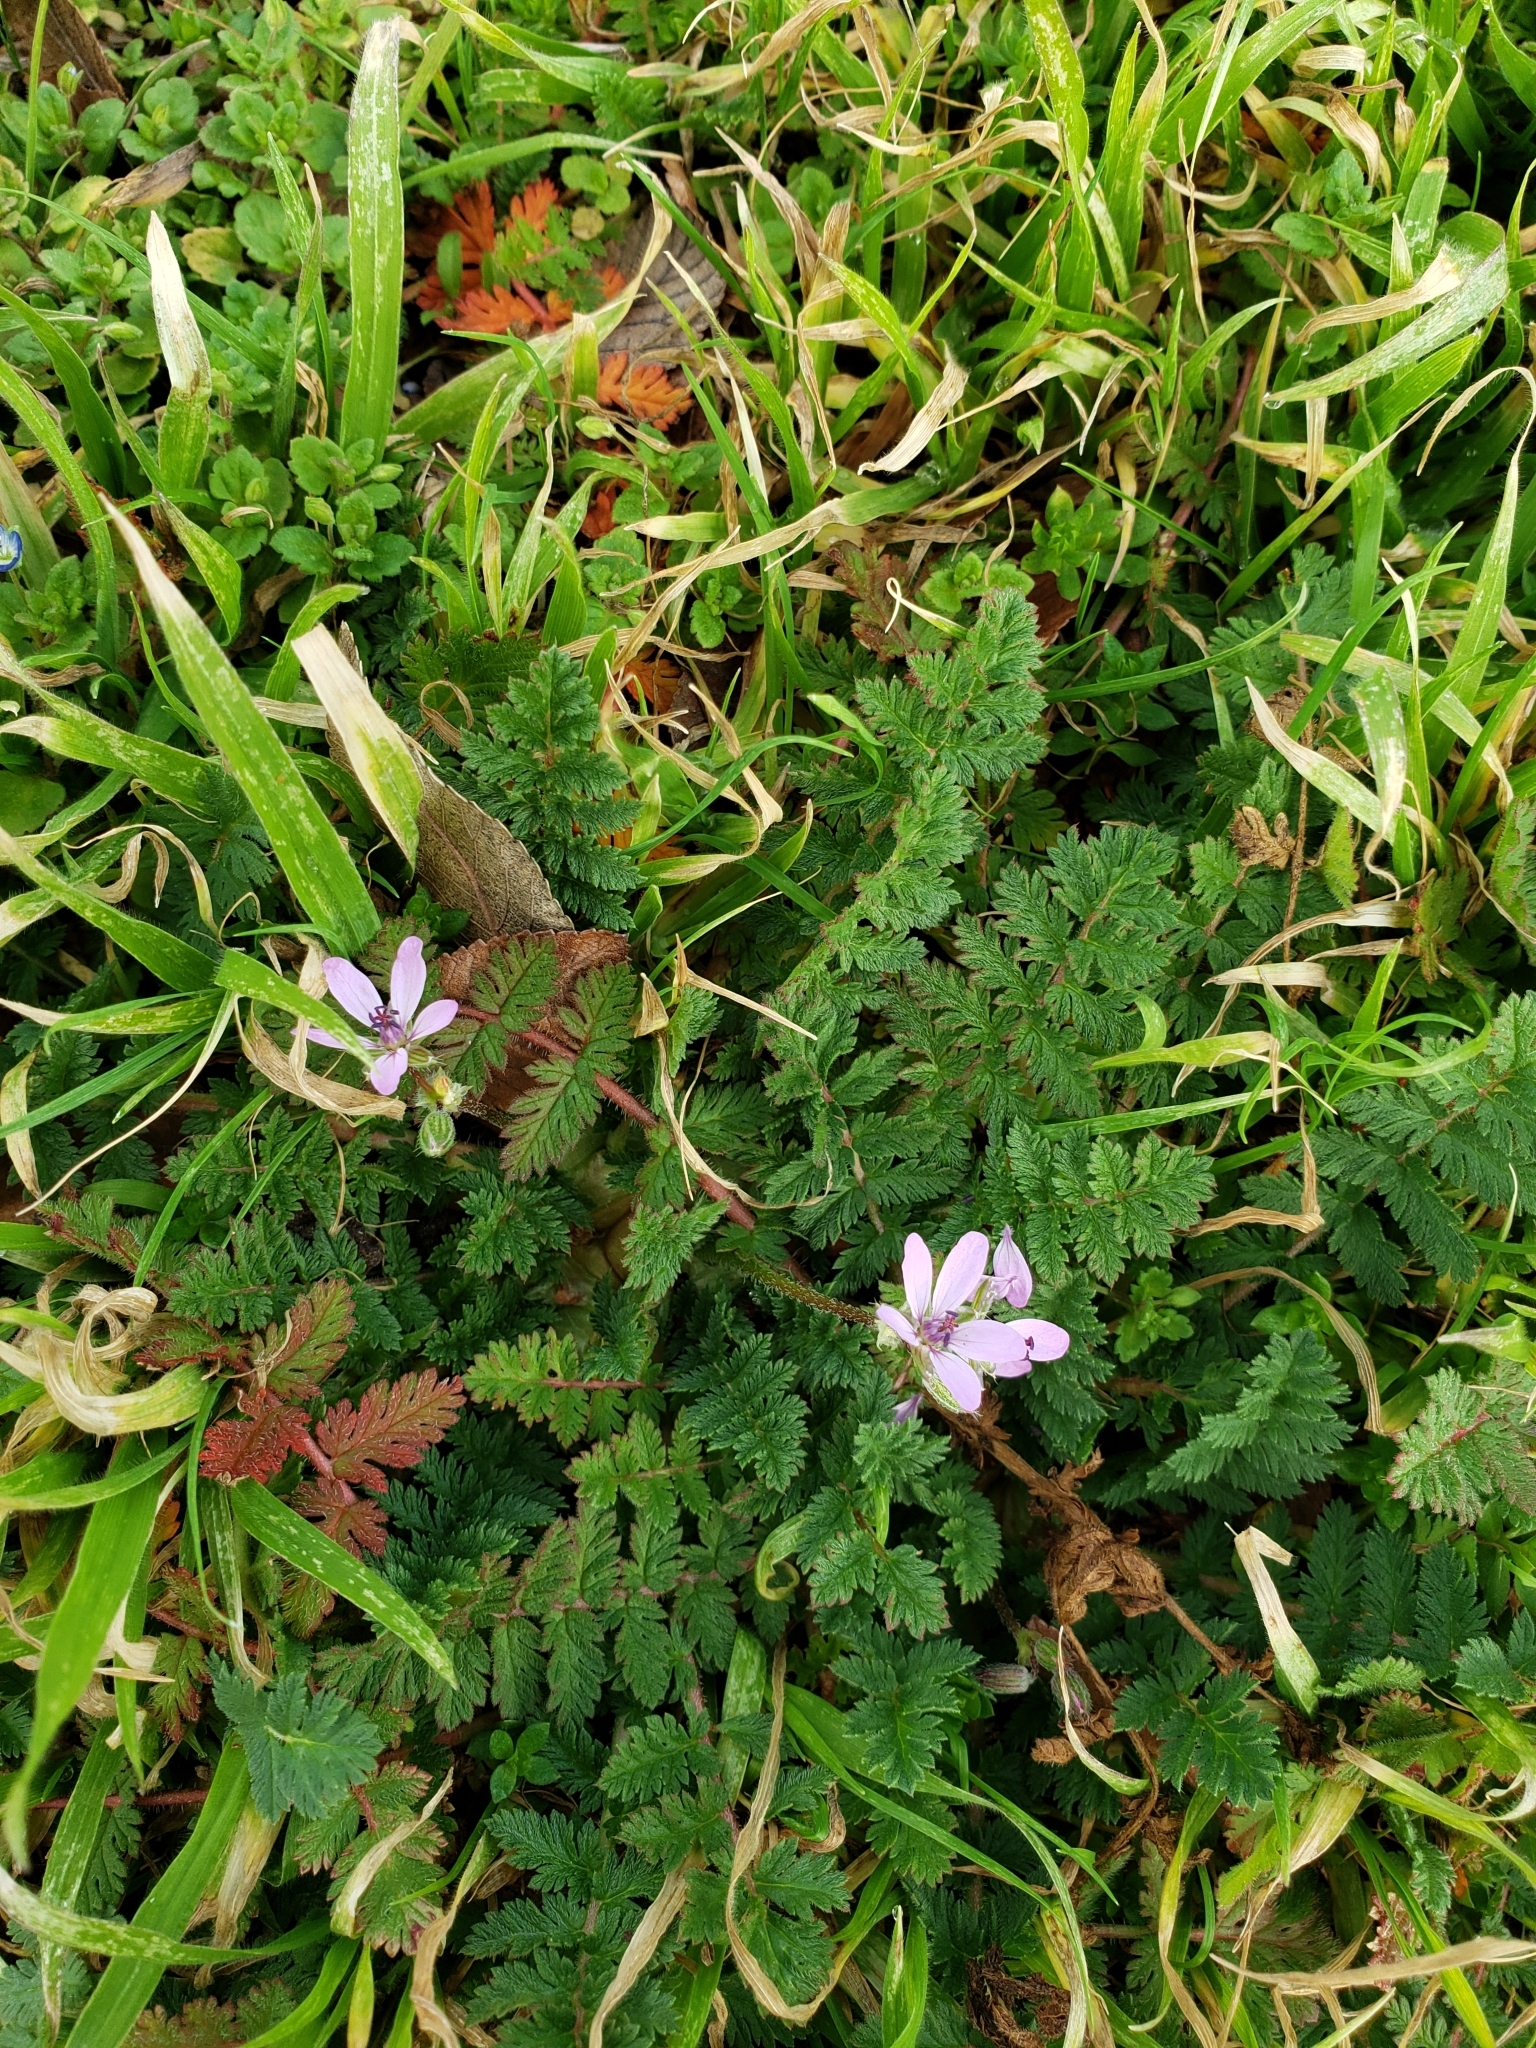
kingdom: Plantae
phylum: Tracheophyta
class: Magnoliopsida
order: Geraniales
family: Geraniaceae
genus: Erodium
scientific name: Erodium cicutarium
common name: Common stork's-bill
